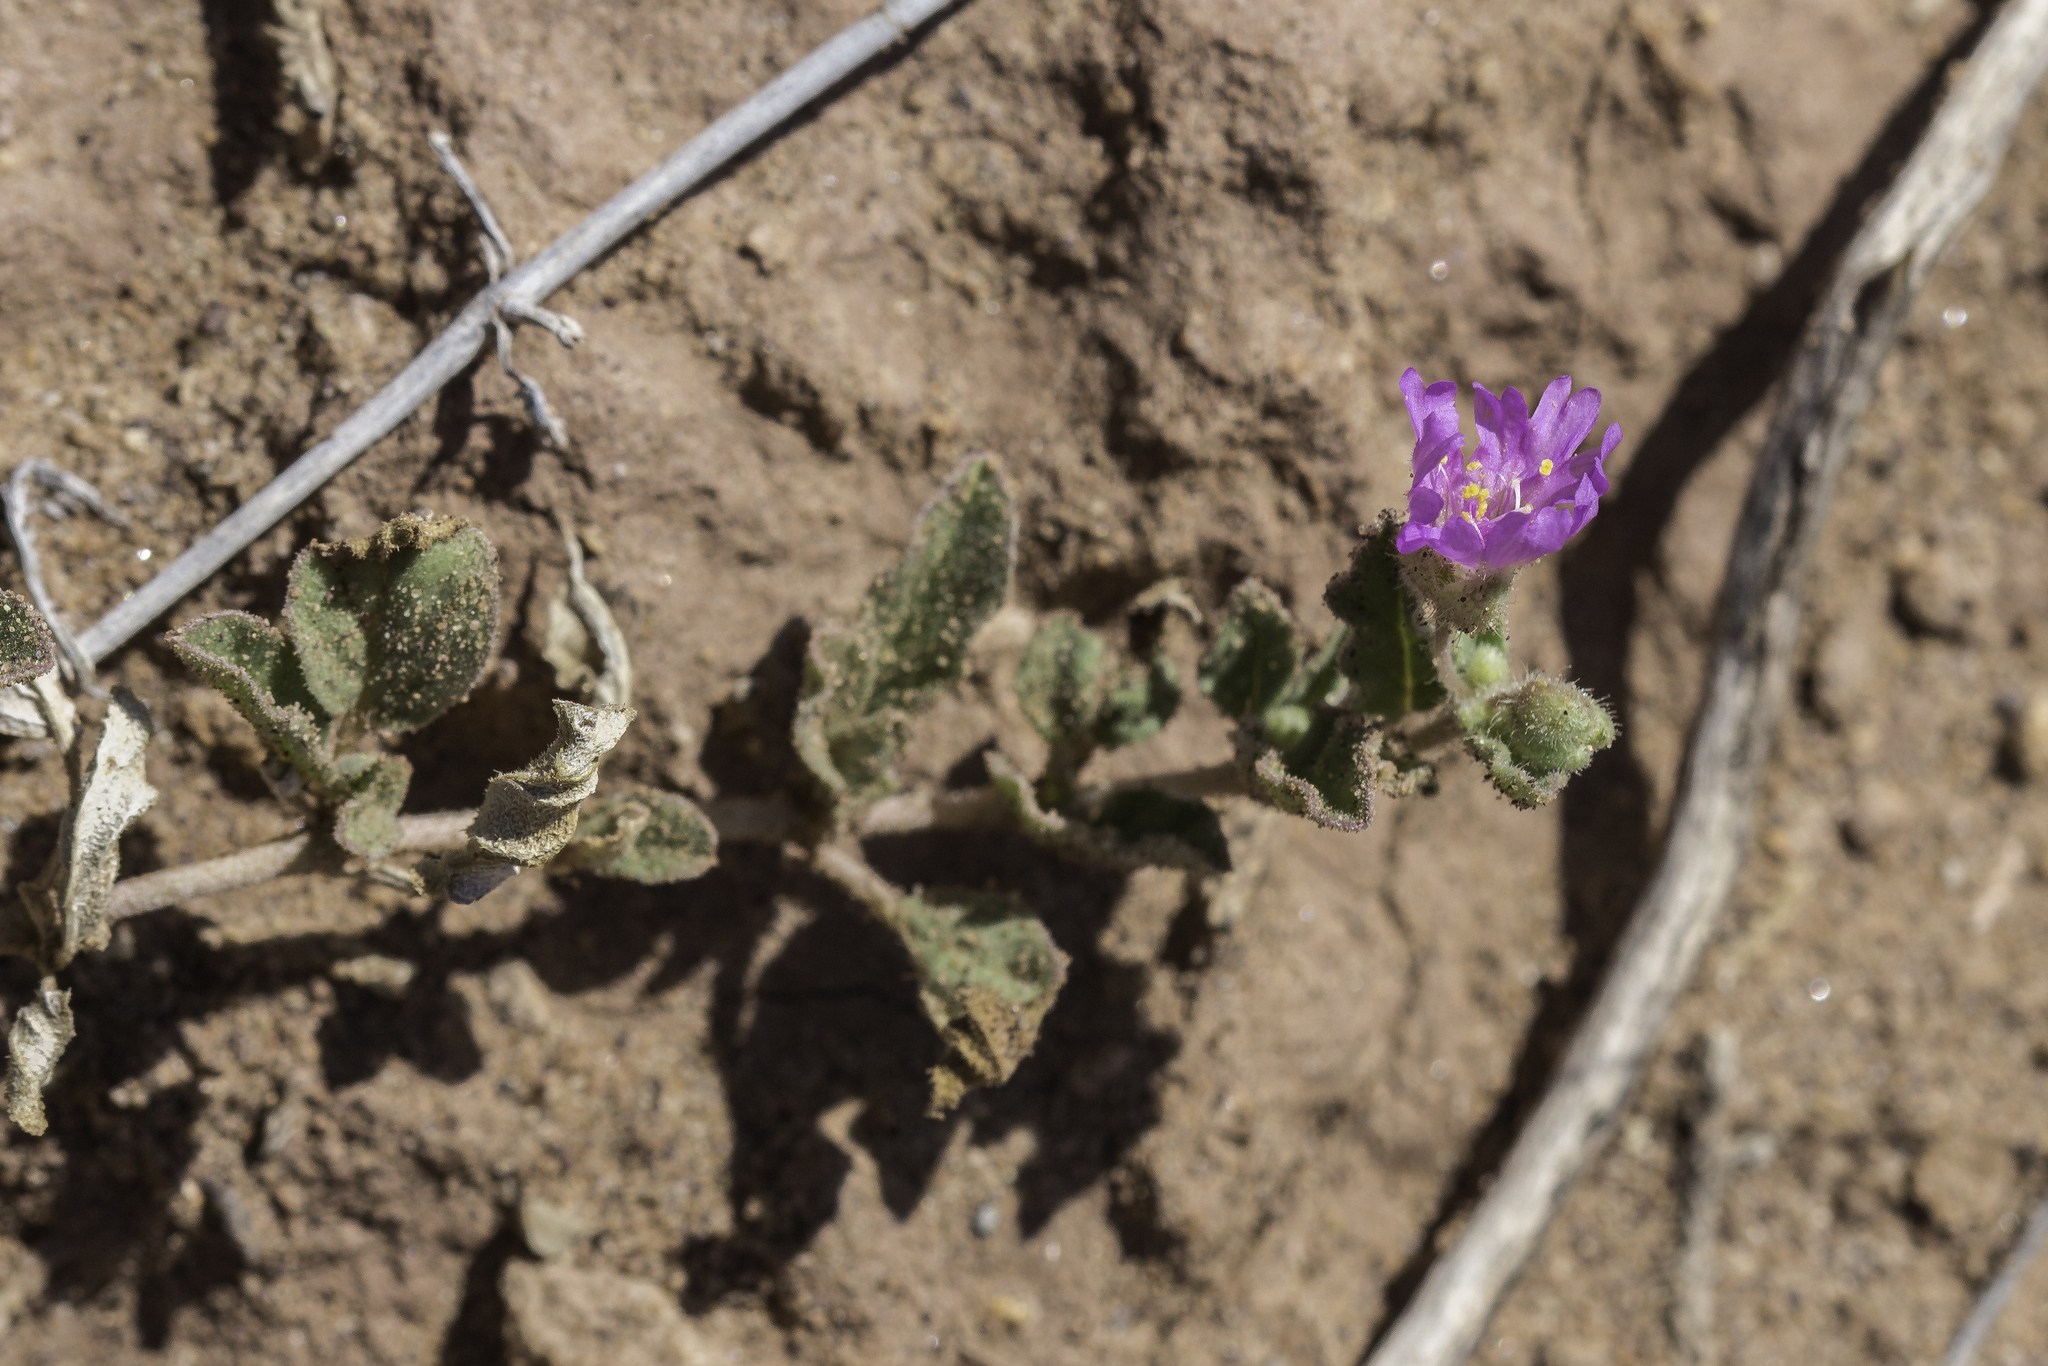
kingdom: Plantae
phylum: Tracheophyta
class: Magnoliopsida
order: Caryophyllales
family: Nyctaginaceae
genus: Allionia
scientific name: Allionia incarnata
